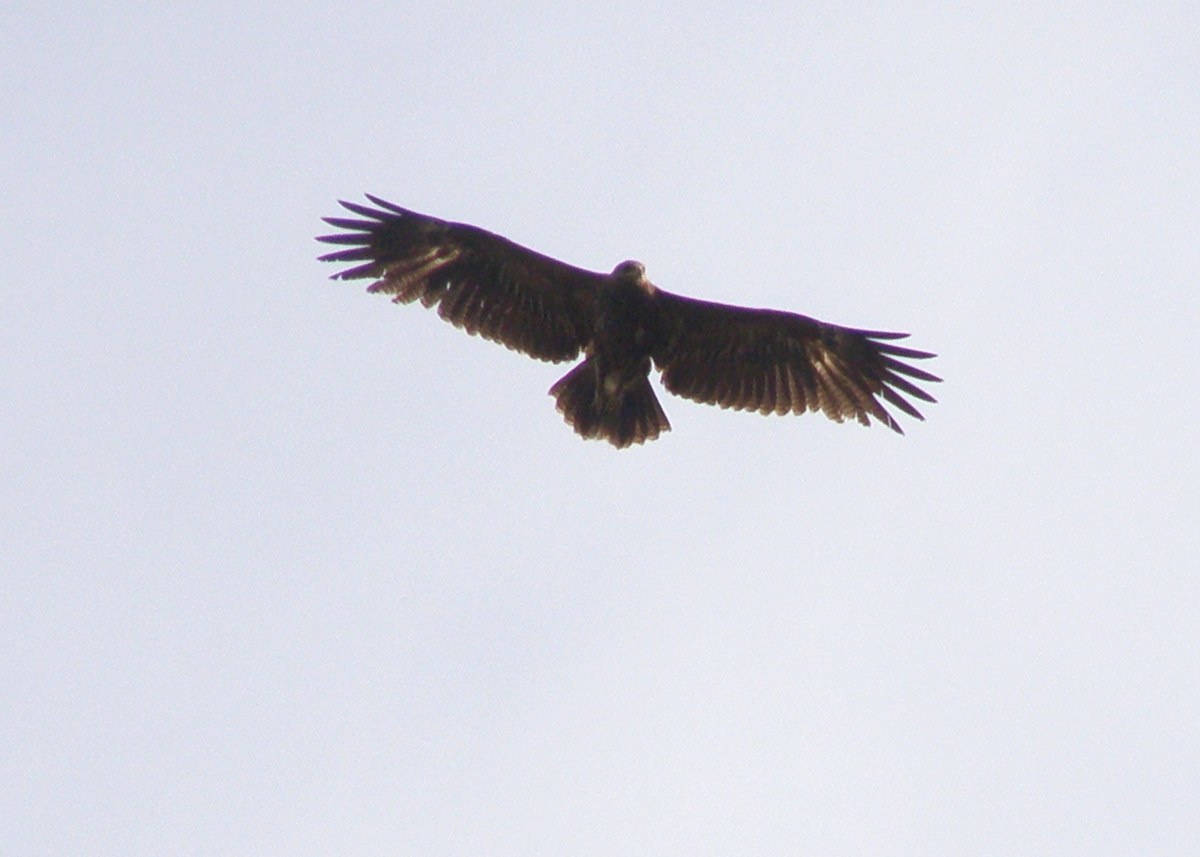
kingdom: Animalia
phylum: Chordata
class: Aves
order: Accipitriformes
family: Accipitridae
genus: Aquila
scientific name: Aquila pomarina
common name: Lesser spotted eagle
